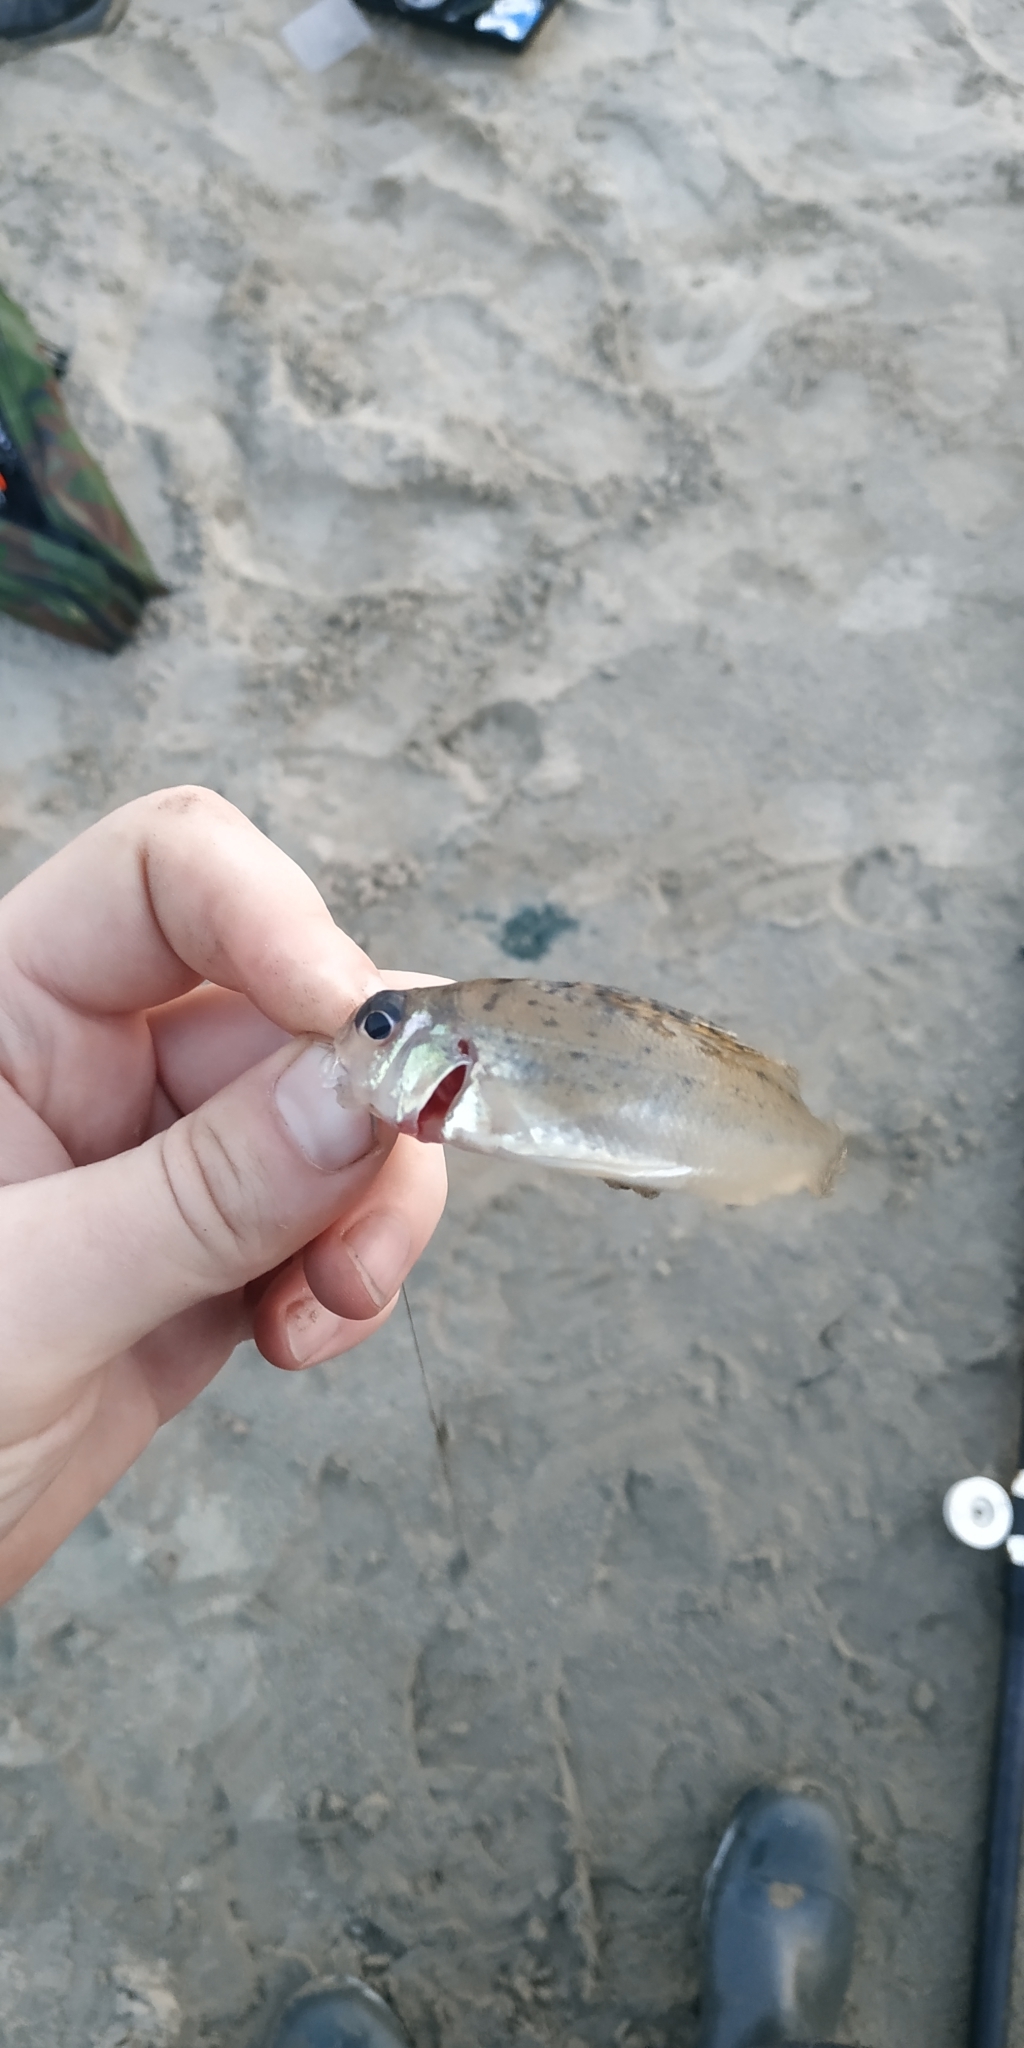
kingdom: Animalia
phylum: Chordata
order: Perciformes
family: Percidae
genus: Gymnocephalus
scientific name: Gymnocephalus cernua
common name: Ruffe
